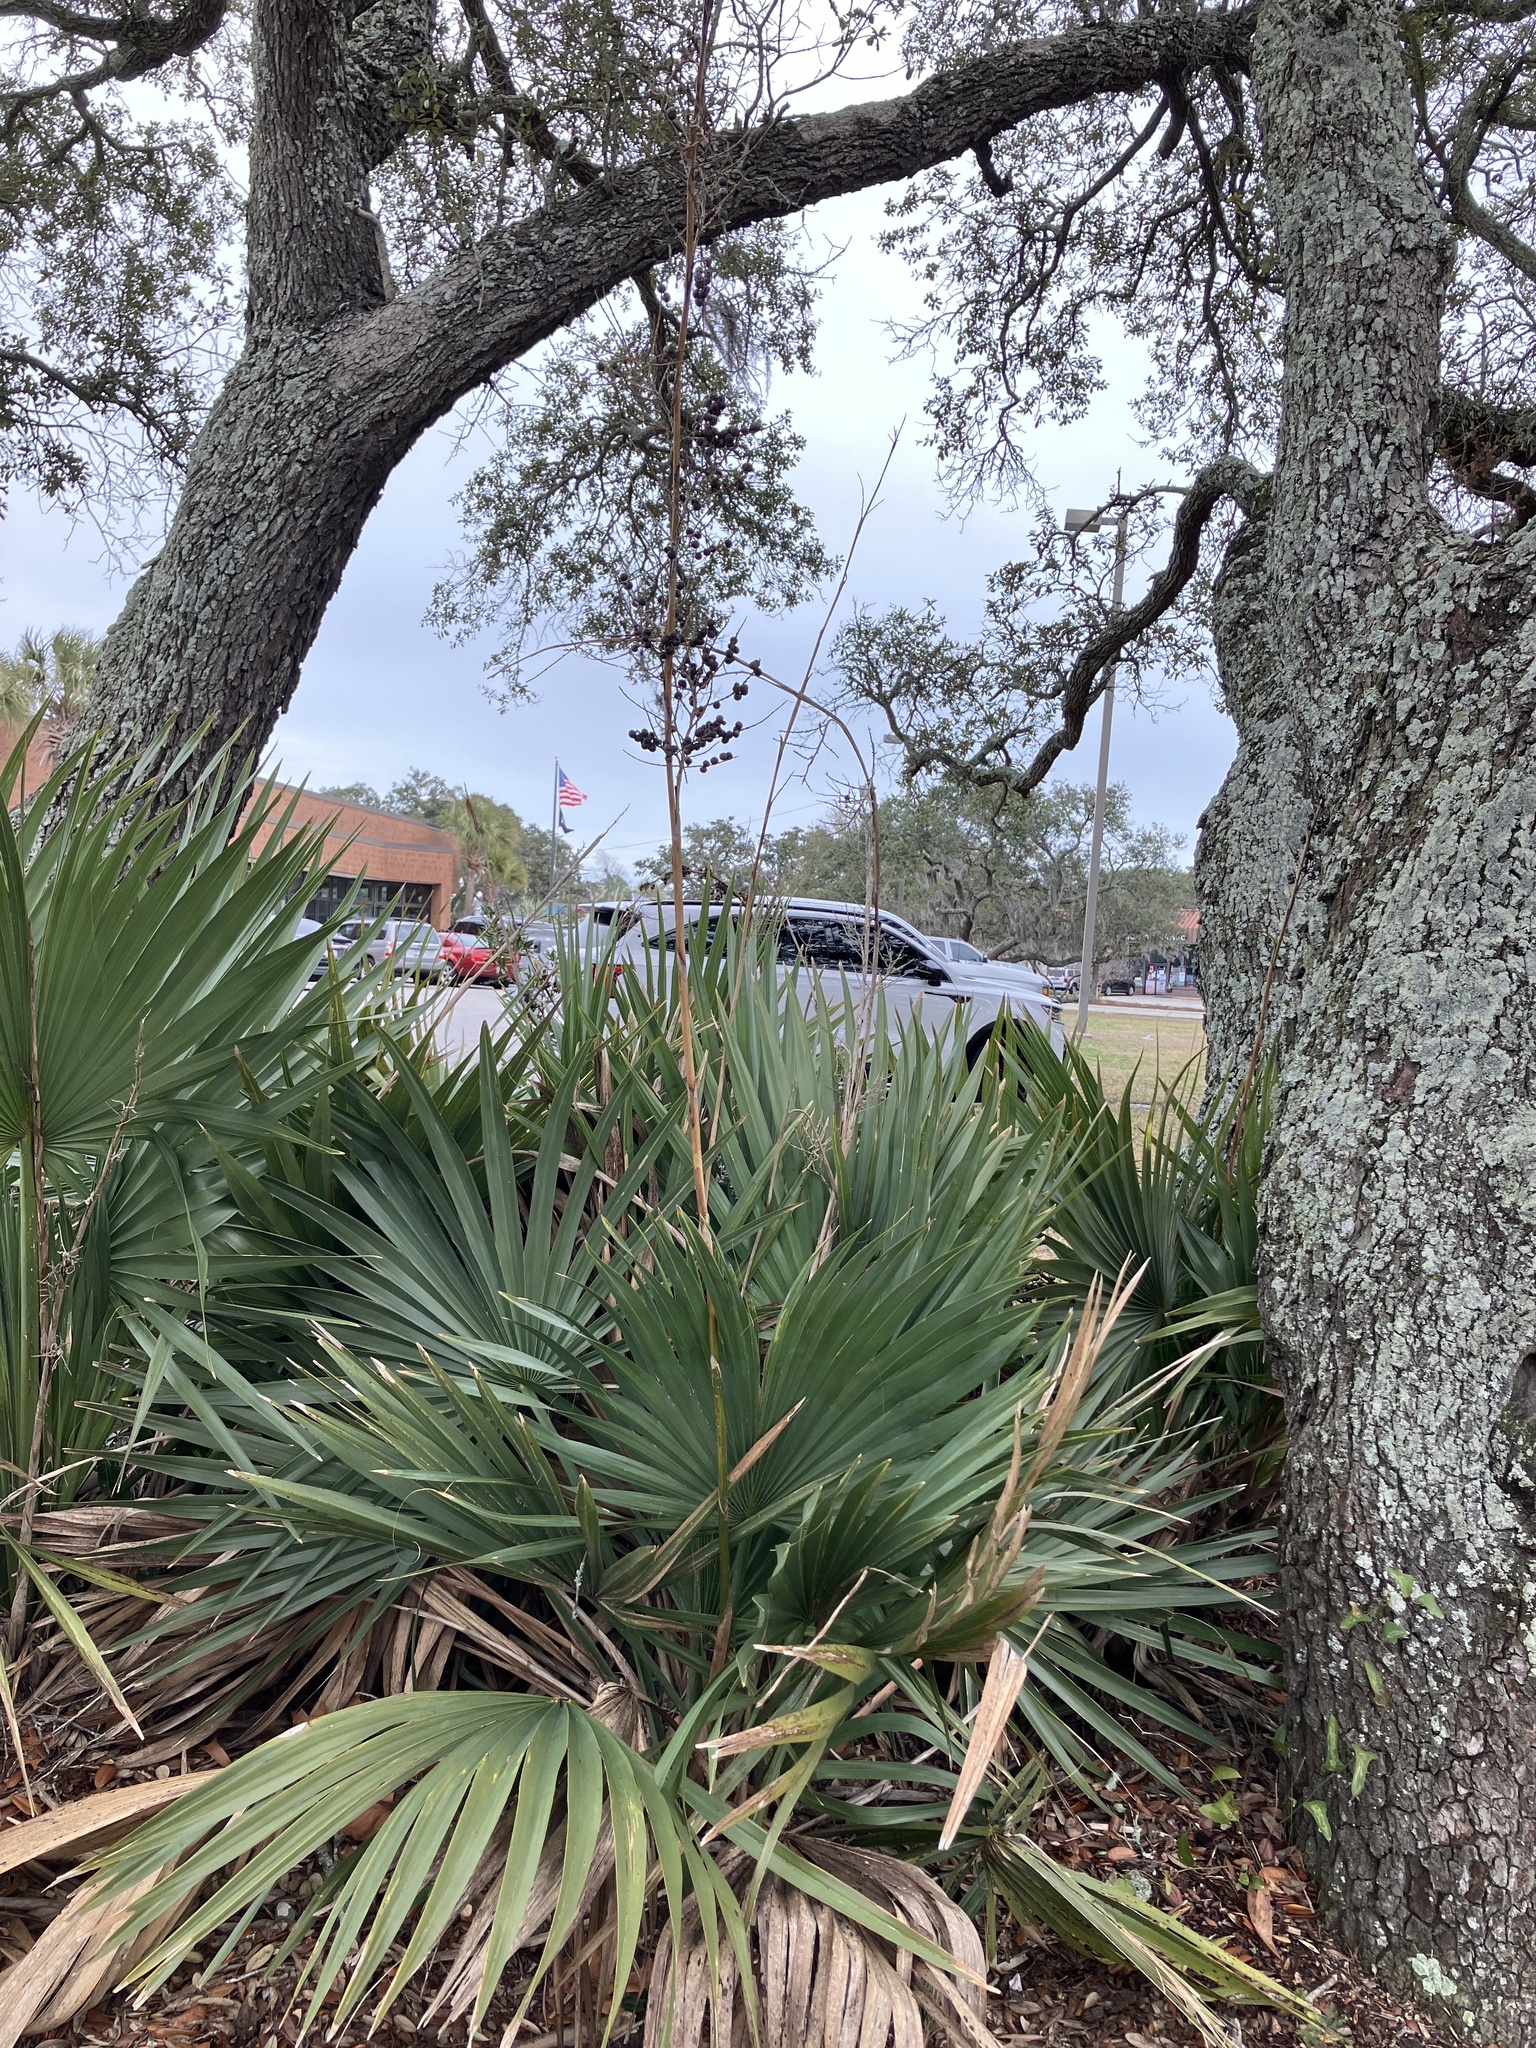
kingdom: Plantae
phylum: Tracheophyta
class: Liliopsida
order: Arecales
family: Arecaceae
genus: Sabal
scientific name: Sabal minor
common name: Dwarf palmetto
